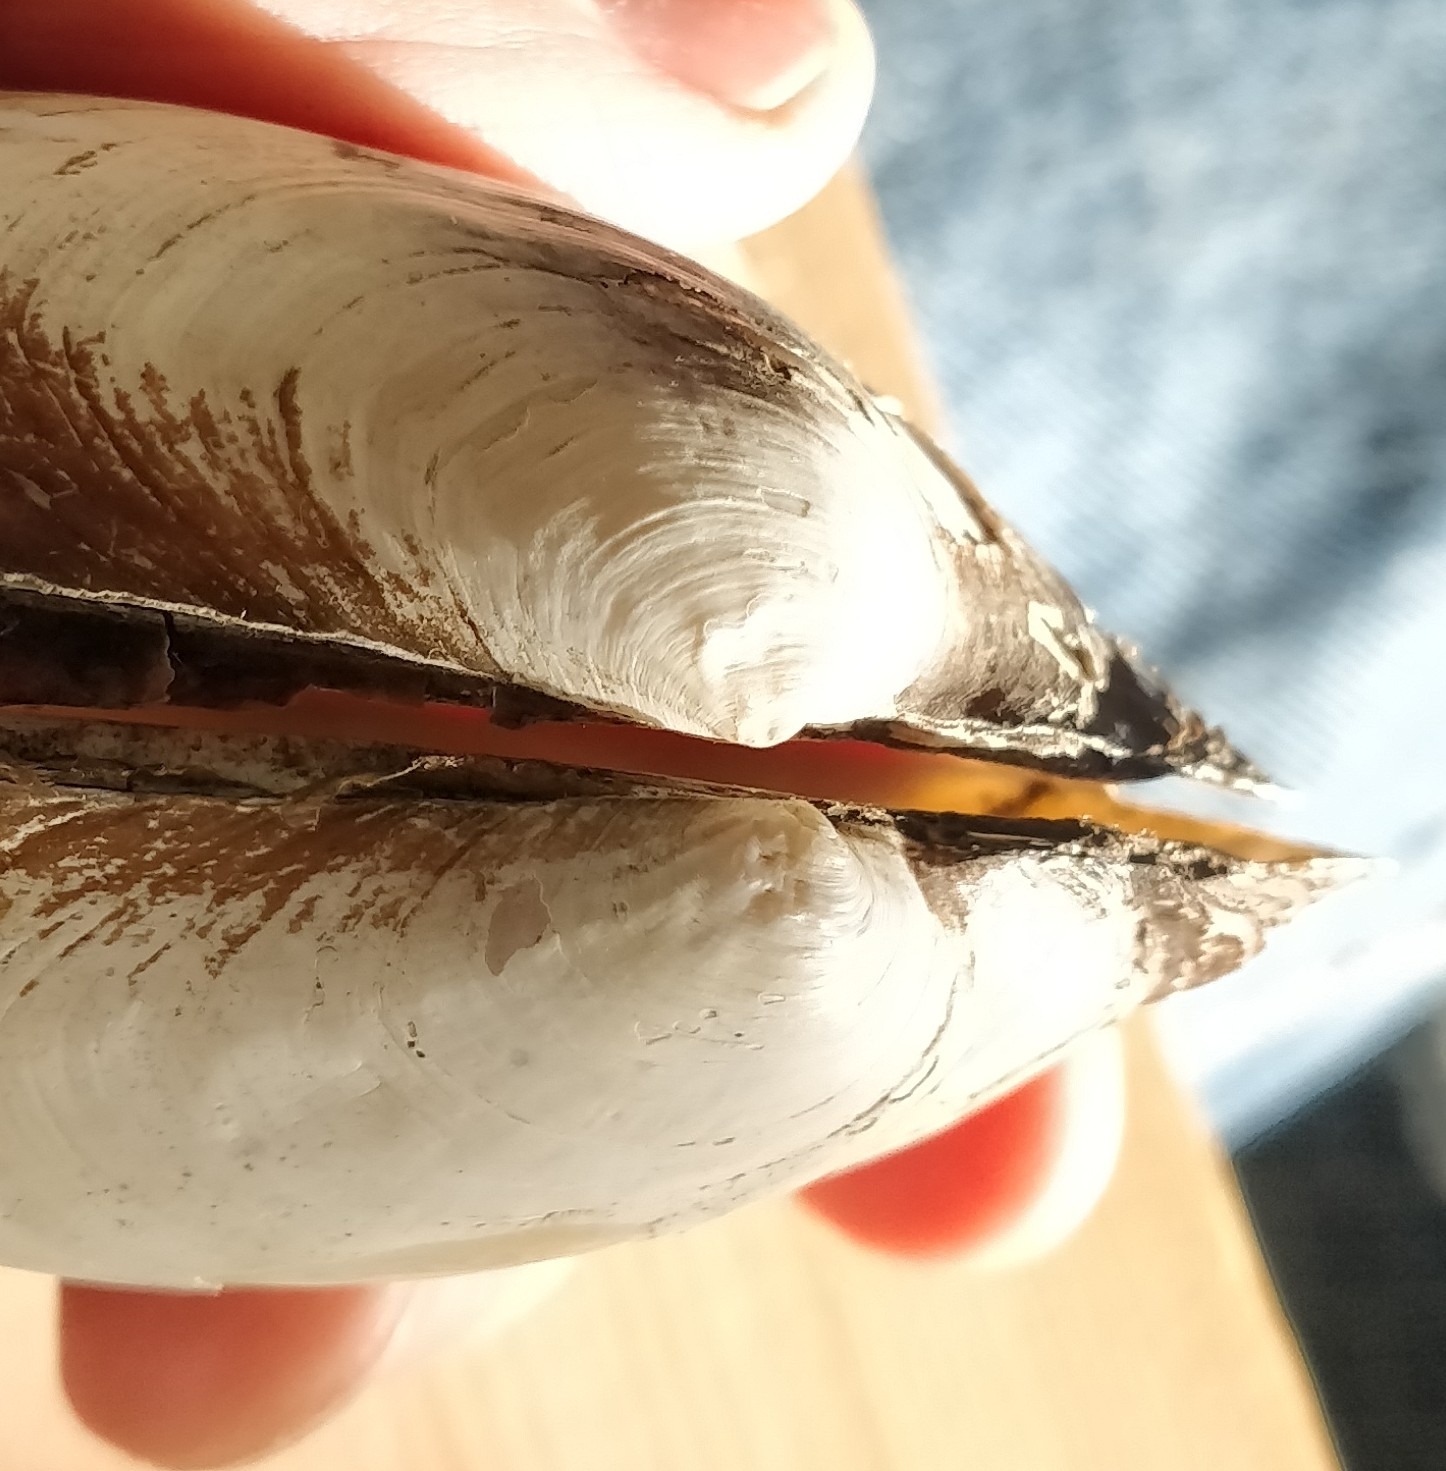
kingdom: Animalia
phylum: Mollusca
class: Bivalvia
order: Unionida
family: Unionidae
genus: Pyganodon
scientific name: Pyganodon grandis
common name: Giant floater
